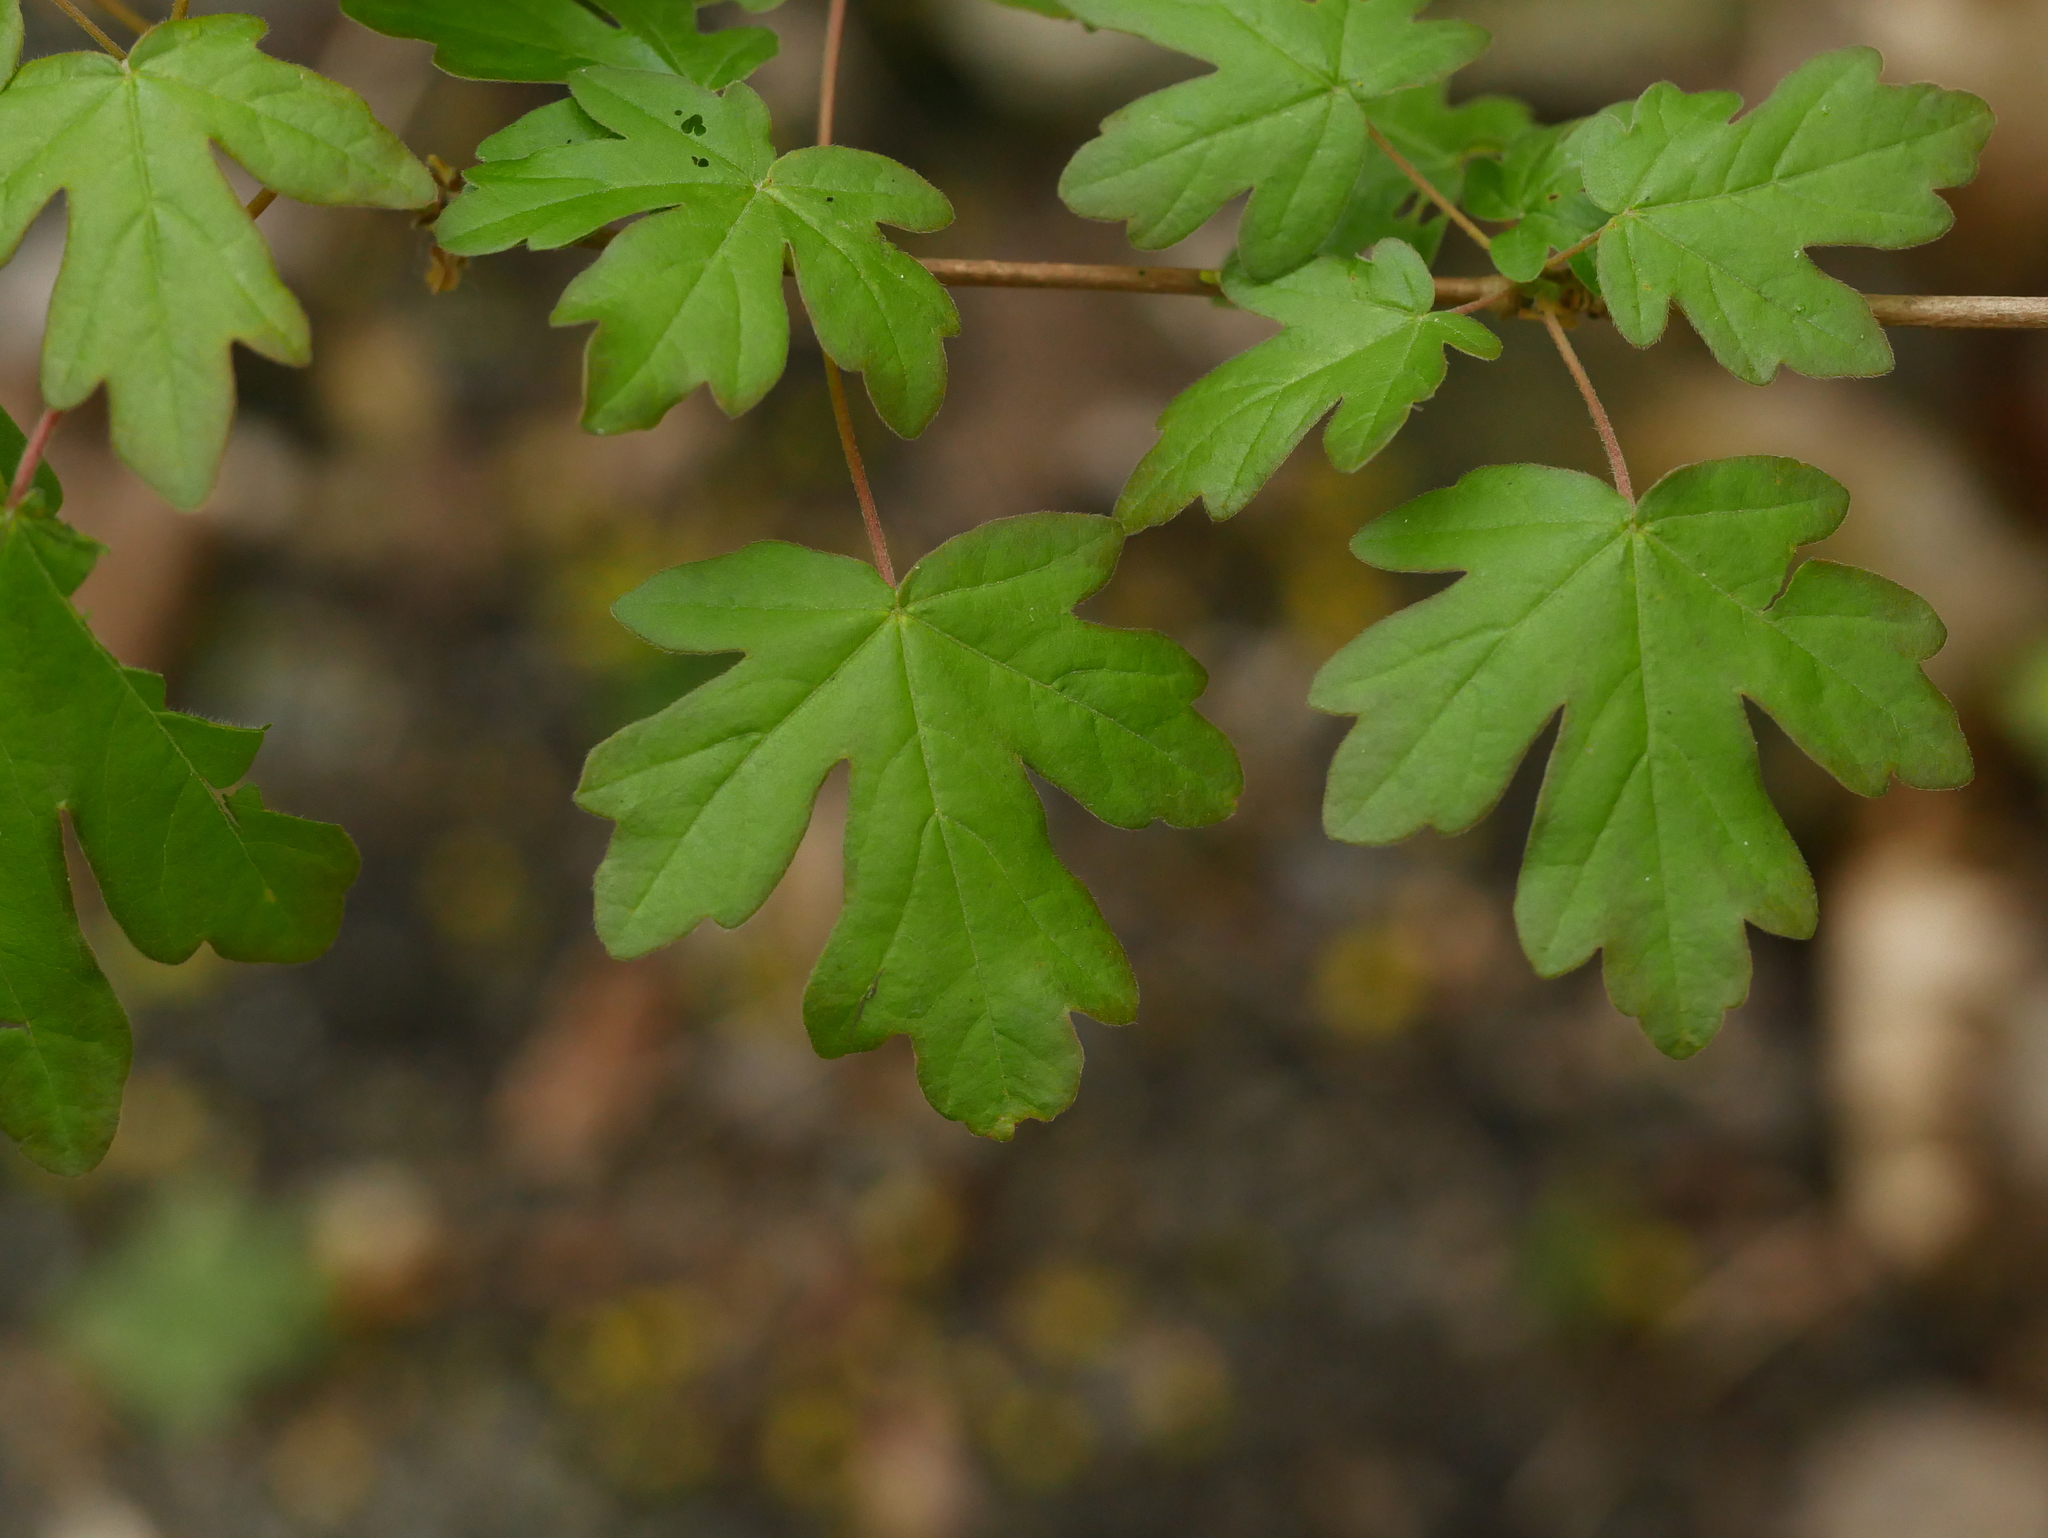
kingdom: Plantae
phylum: Tracheophyta
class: Magnoliopsida
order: Sapindales
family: Sapindaceae
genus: Acer
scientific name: Acer campestre
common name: Field maple
